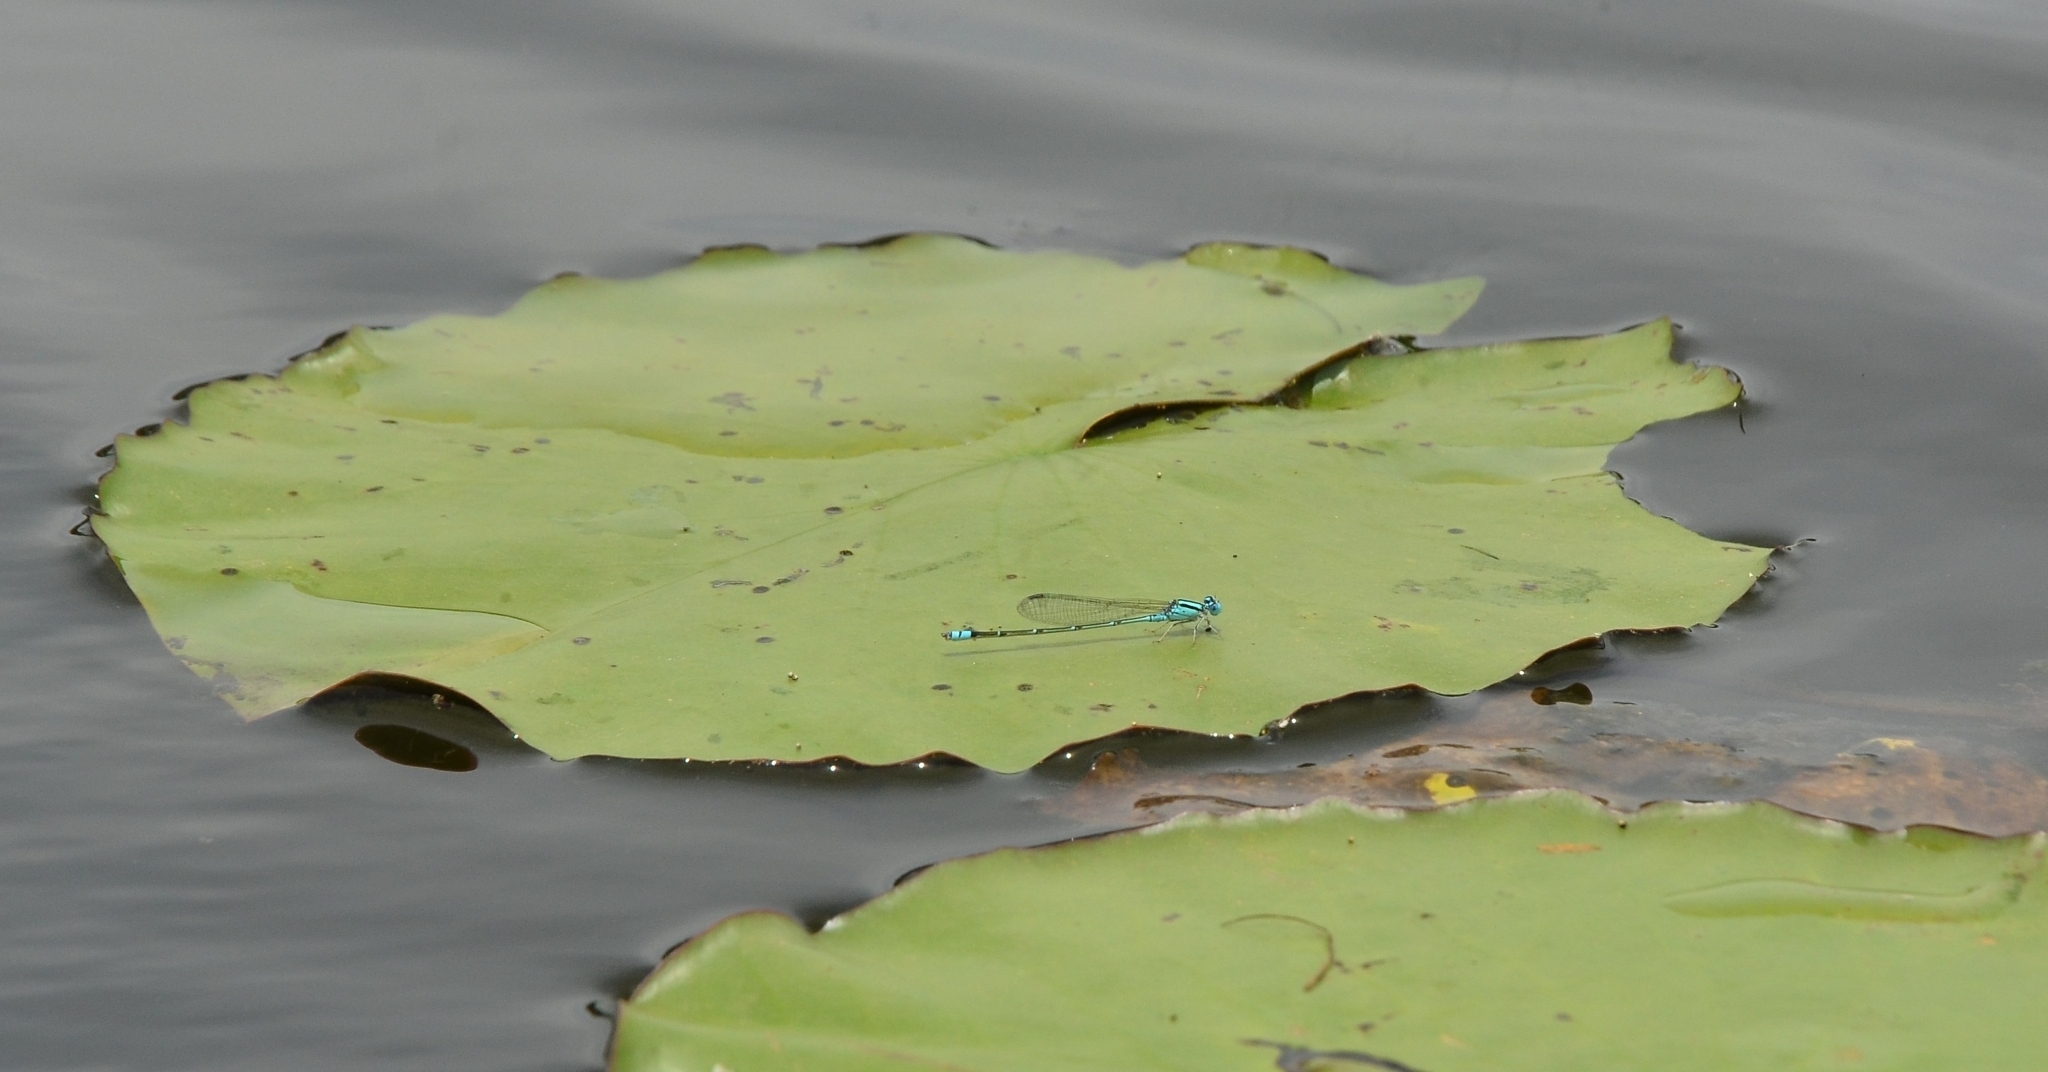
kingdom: Animalia
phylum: Arthropoda
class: Insecta
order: Odonata
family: Coenagrionidae
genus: Pseudagrion
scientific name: Pseudagrion microcephalum
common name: Blue riverdamsel
